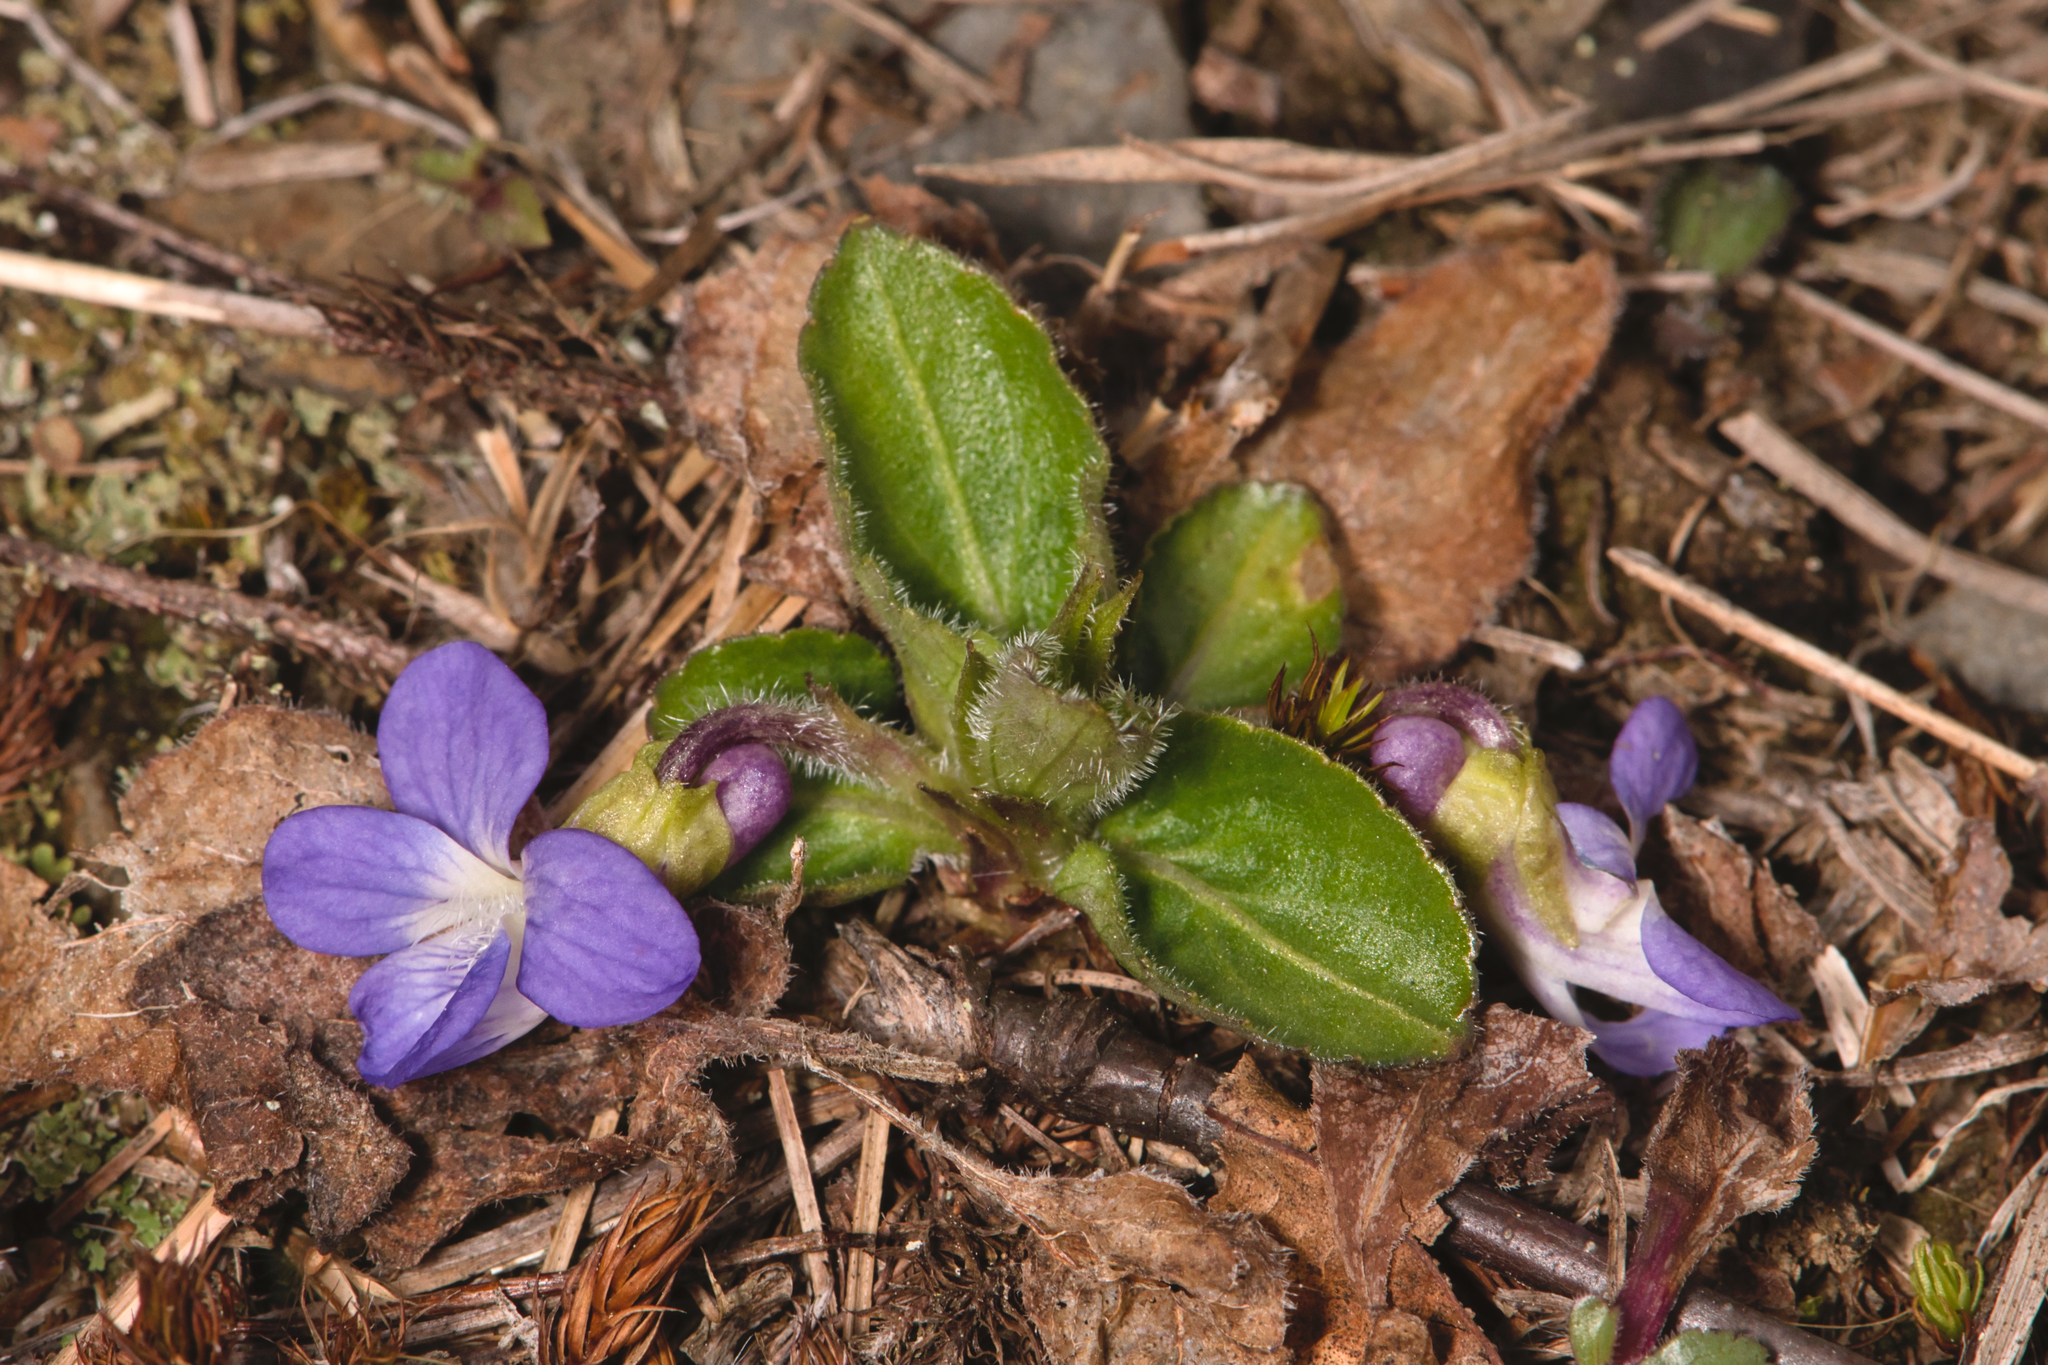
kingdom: Plantae
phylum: Tracheophyta
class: Magnoliopsida
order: Malpighiales
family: Violaceae
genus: Viola
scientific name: Viola fimbriatula
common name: Sand violet
